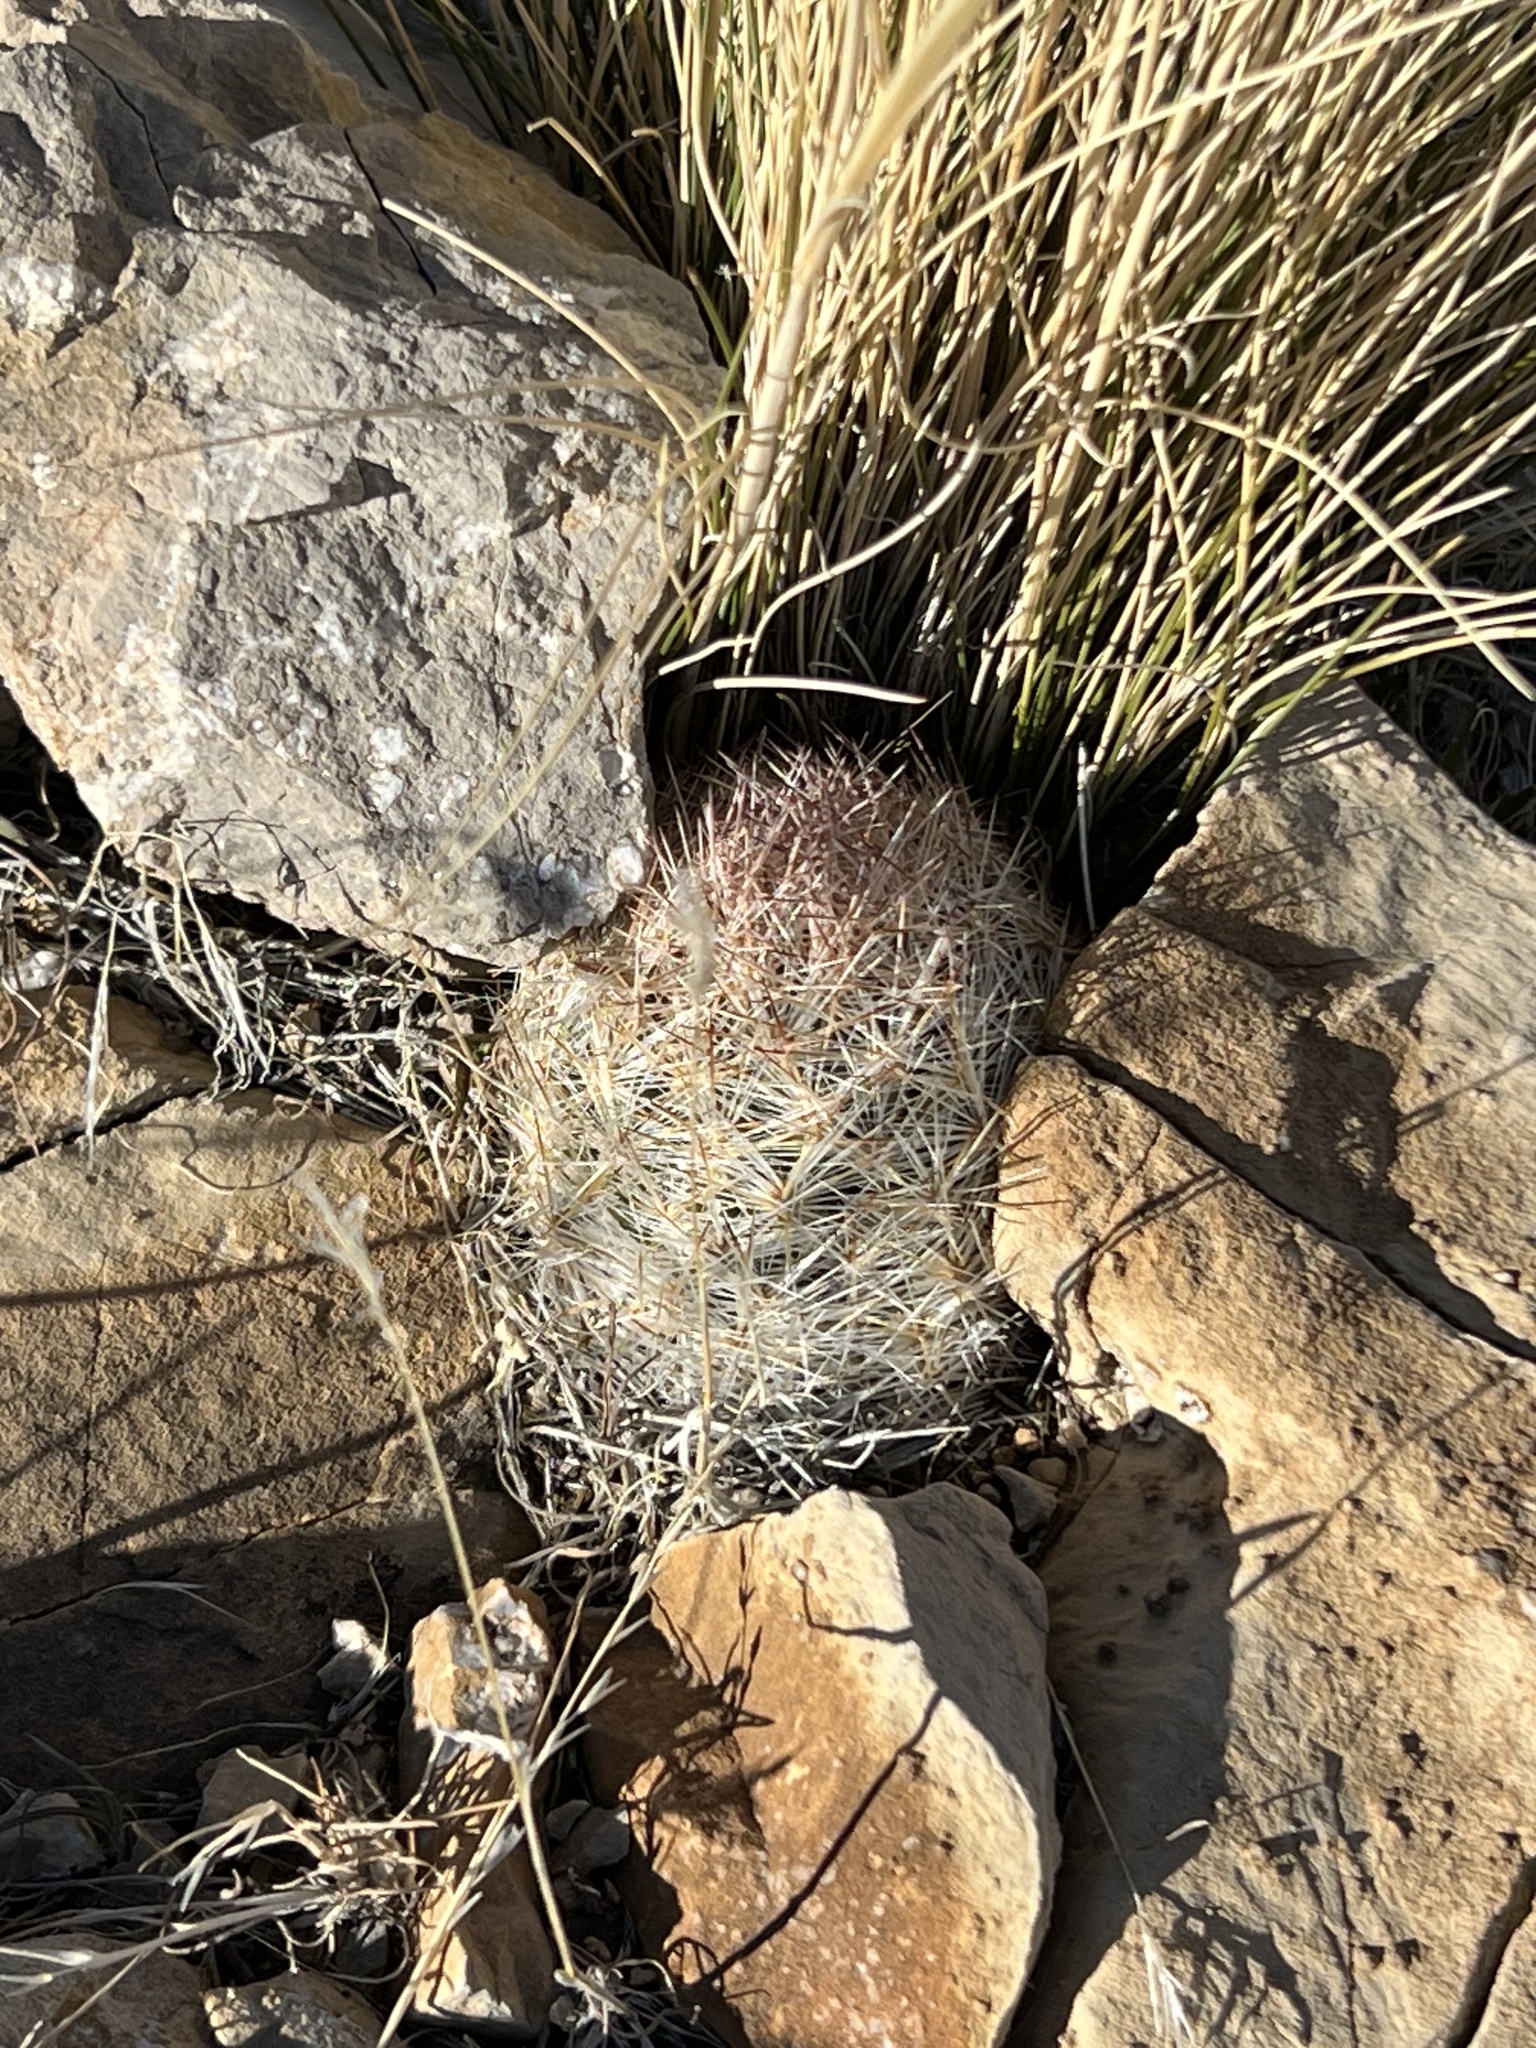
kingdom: Plantae
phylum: Tracheophyta
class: Magnoliopsida
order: Caryophyllales
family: Cactaceae
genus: Pelecyphora
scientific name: Pelecyphora dasyacantha
